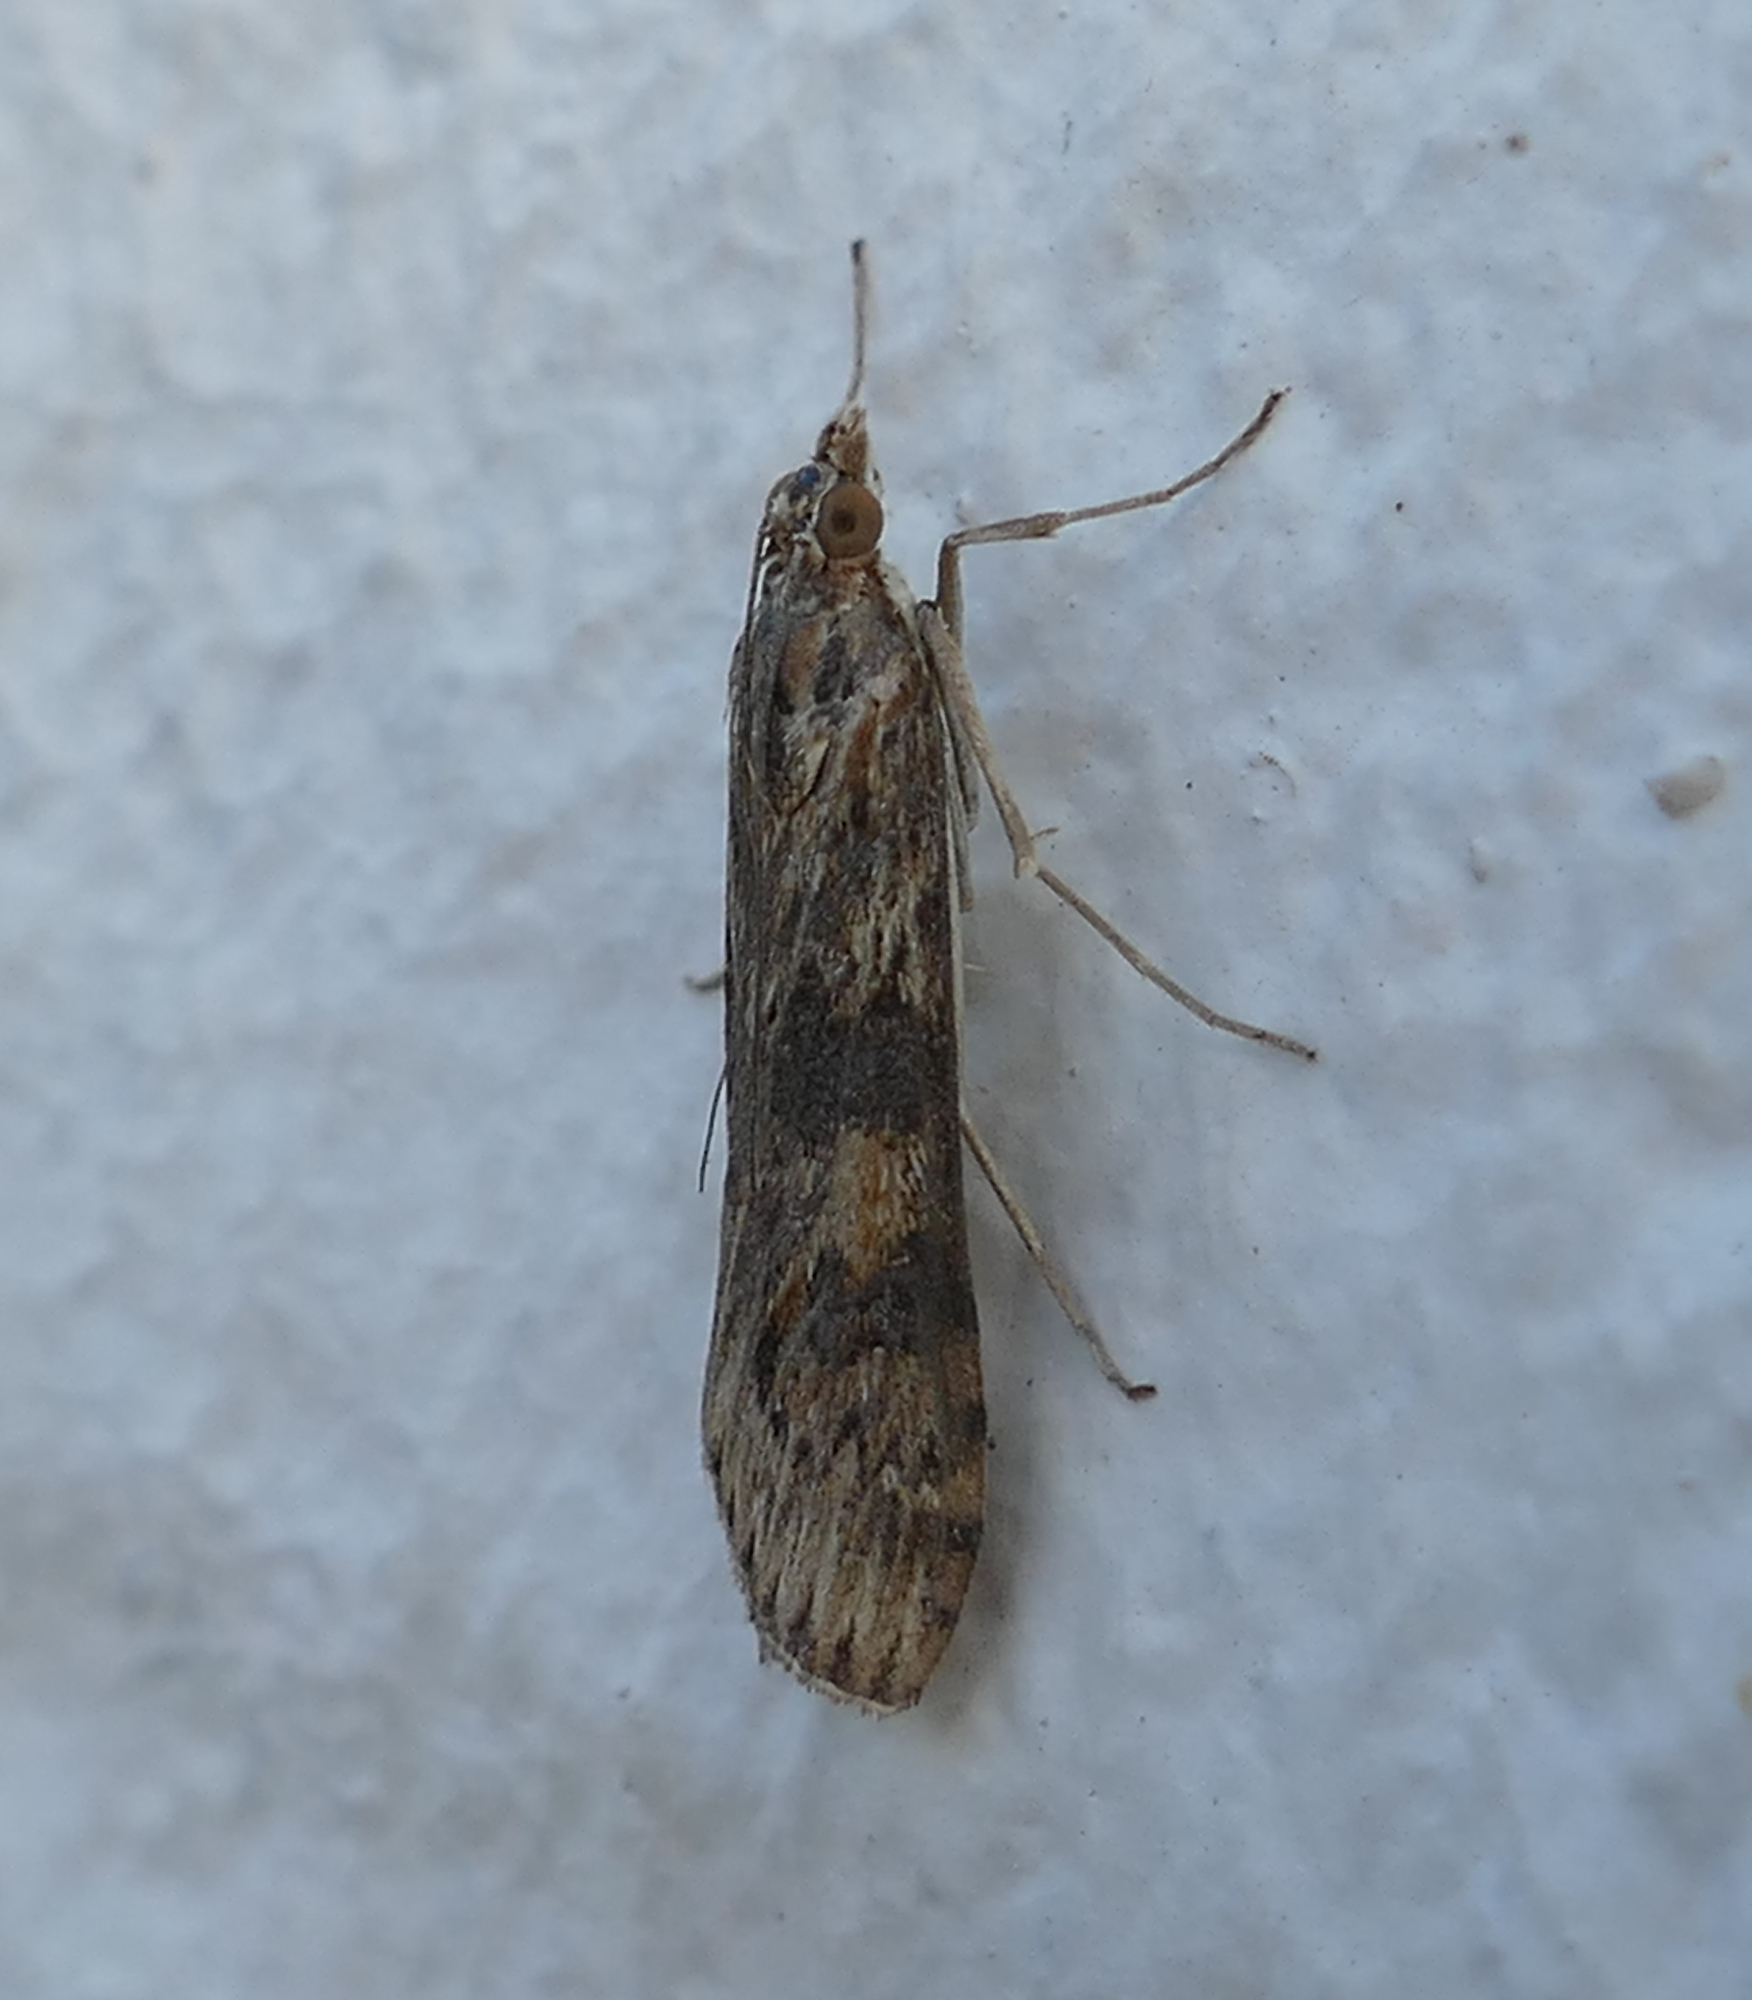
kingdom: Animalia
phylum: Arthropoda
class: Insecta
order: Lepidoptera
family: Crambidae
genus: Nomophila
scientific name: Nomophila nearctica
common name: American rush veneer
